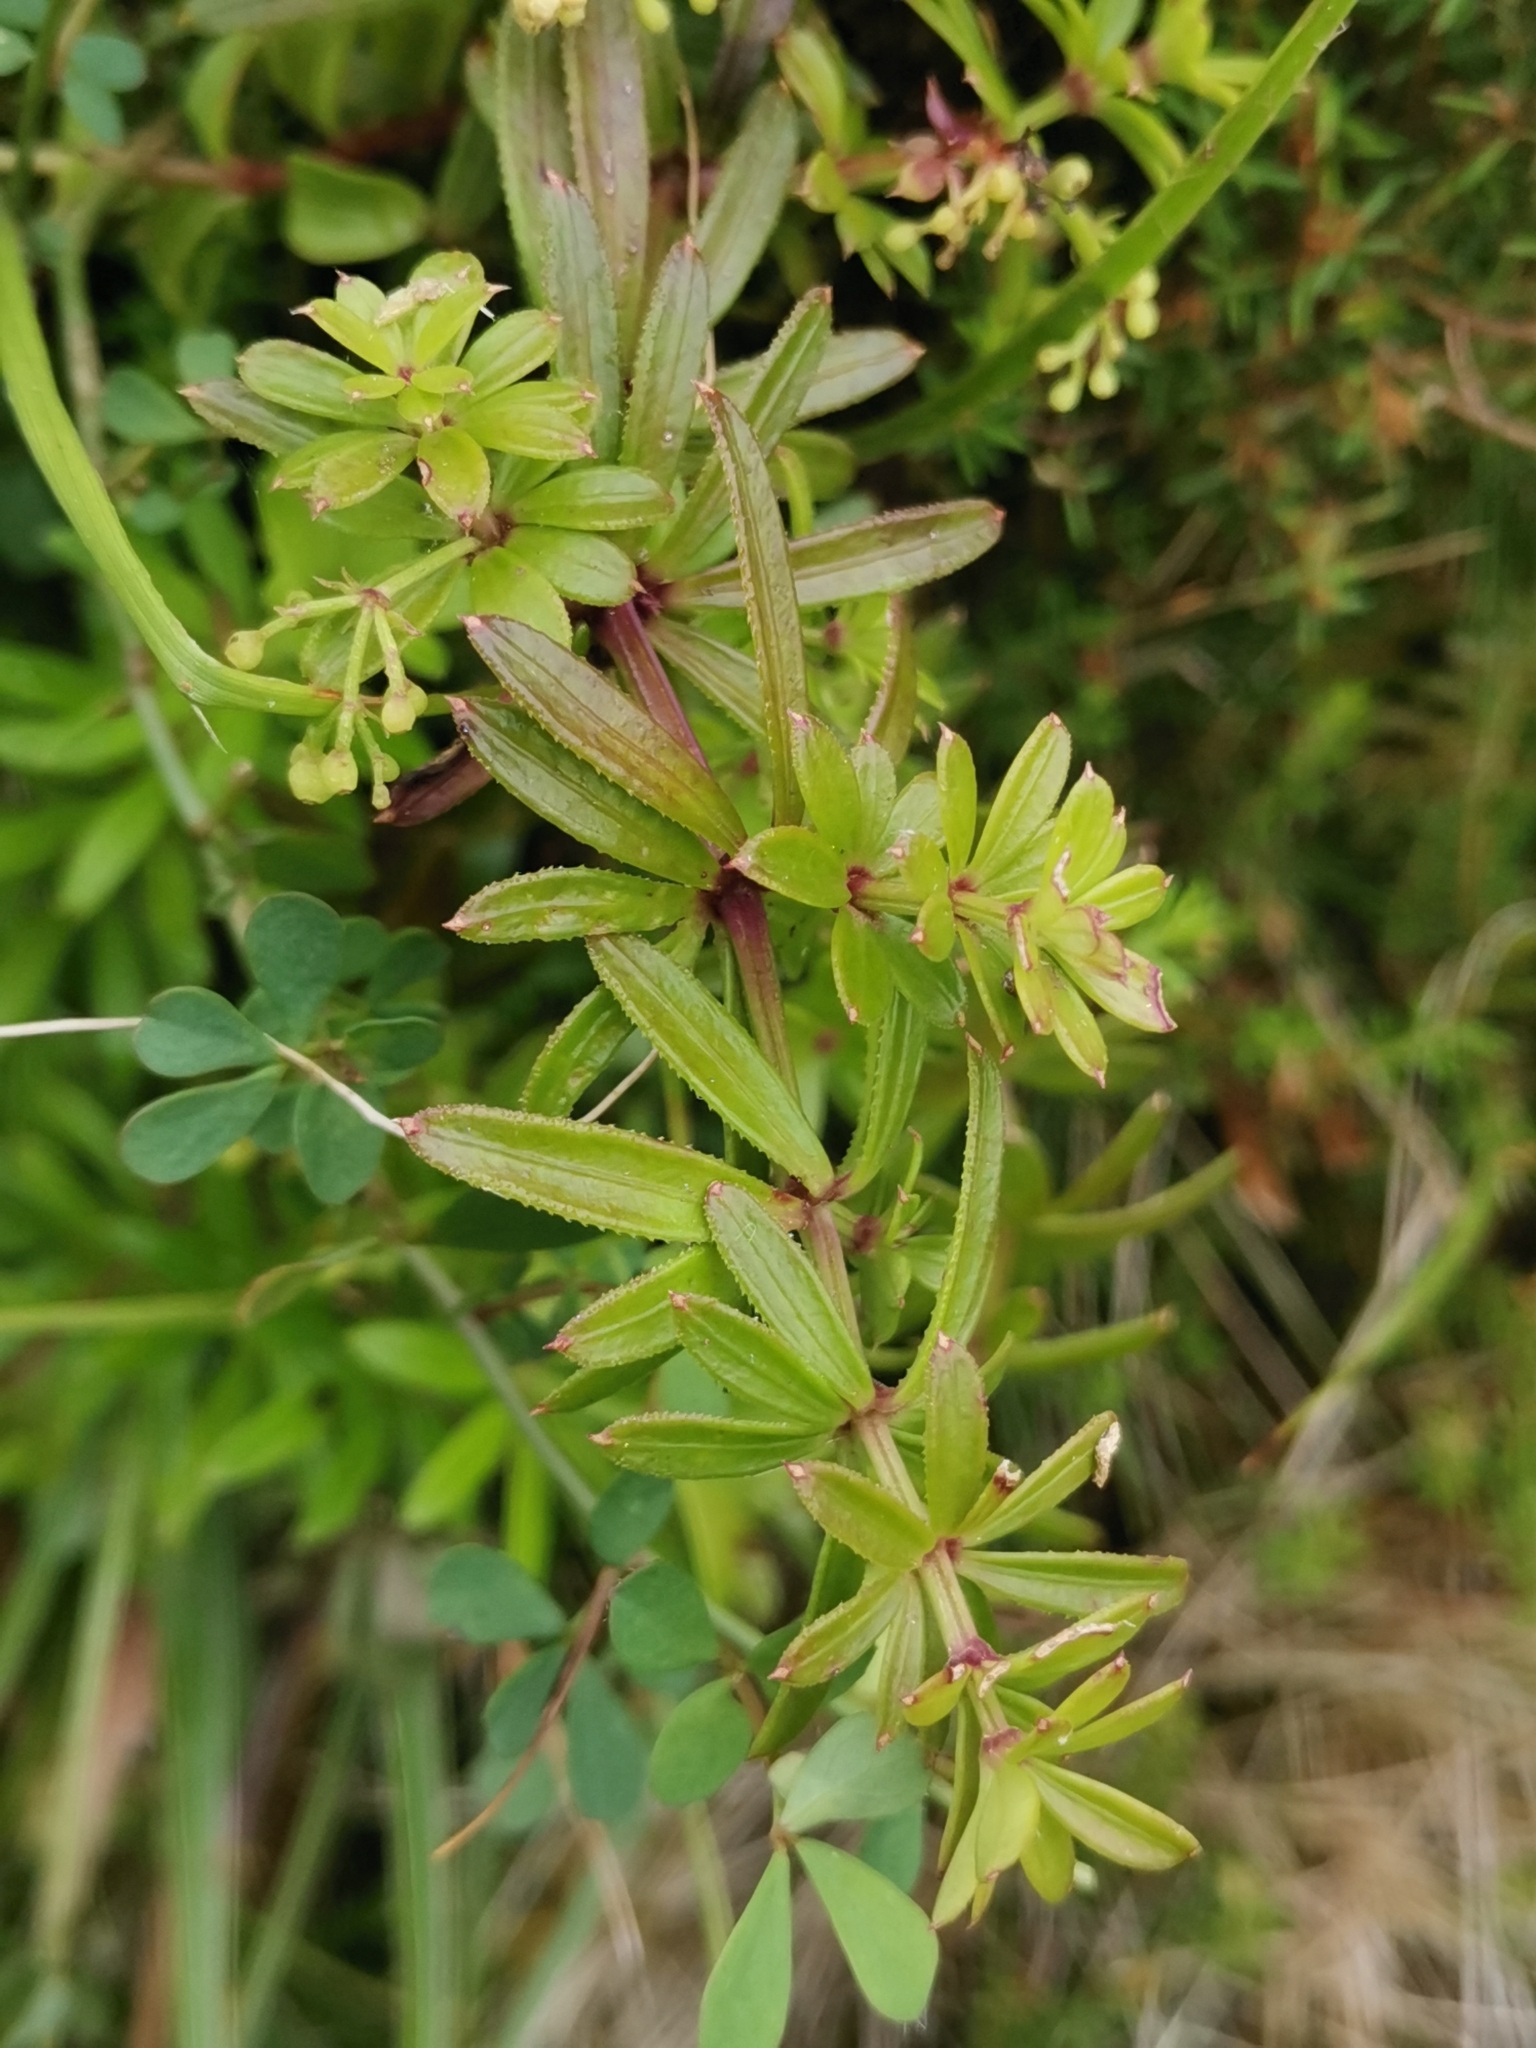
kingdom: Plantae
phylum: Tracheophyta
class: Magnoliopsida
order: Gentianales
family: Rubiaceae
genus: Rubia
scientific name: Rubia agostinhoi
